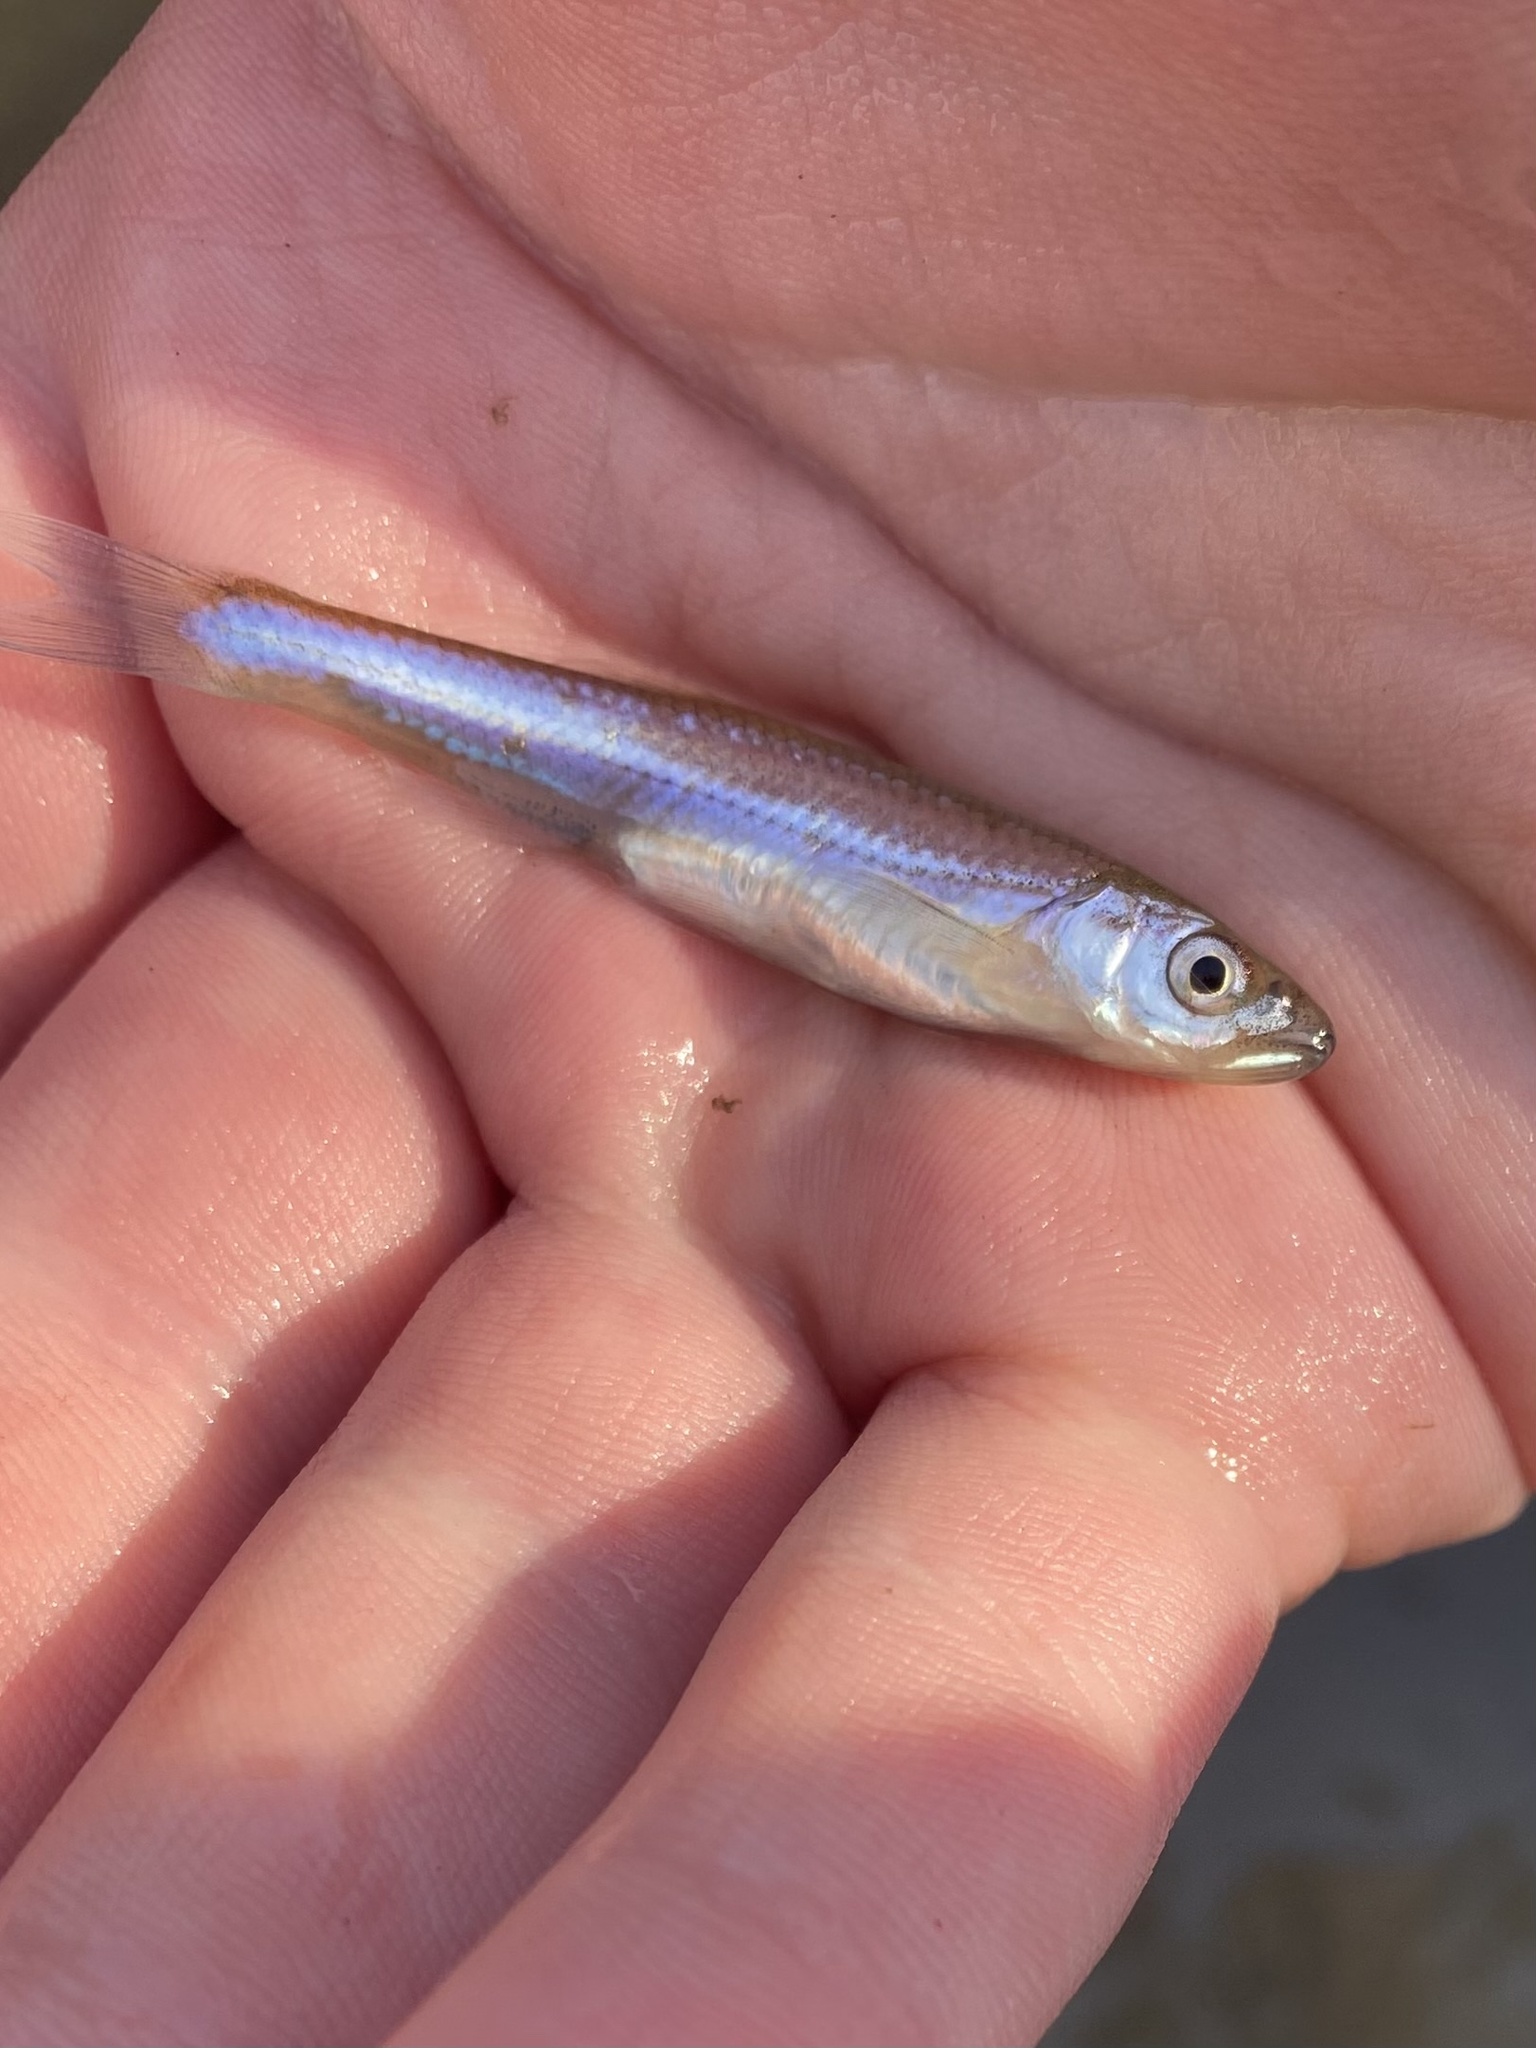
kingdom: Animalia
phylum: Chordata
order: Cypriniformes
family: Cyprinidae
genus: Notropis
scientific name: Notropis percobromus
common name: Carmine shiner
